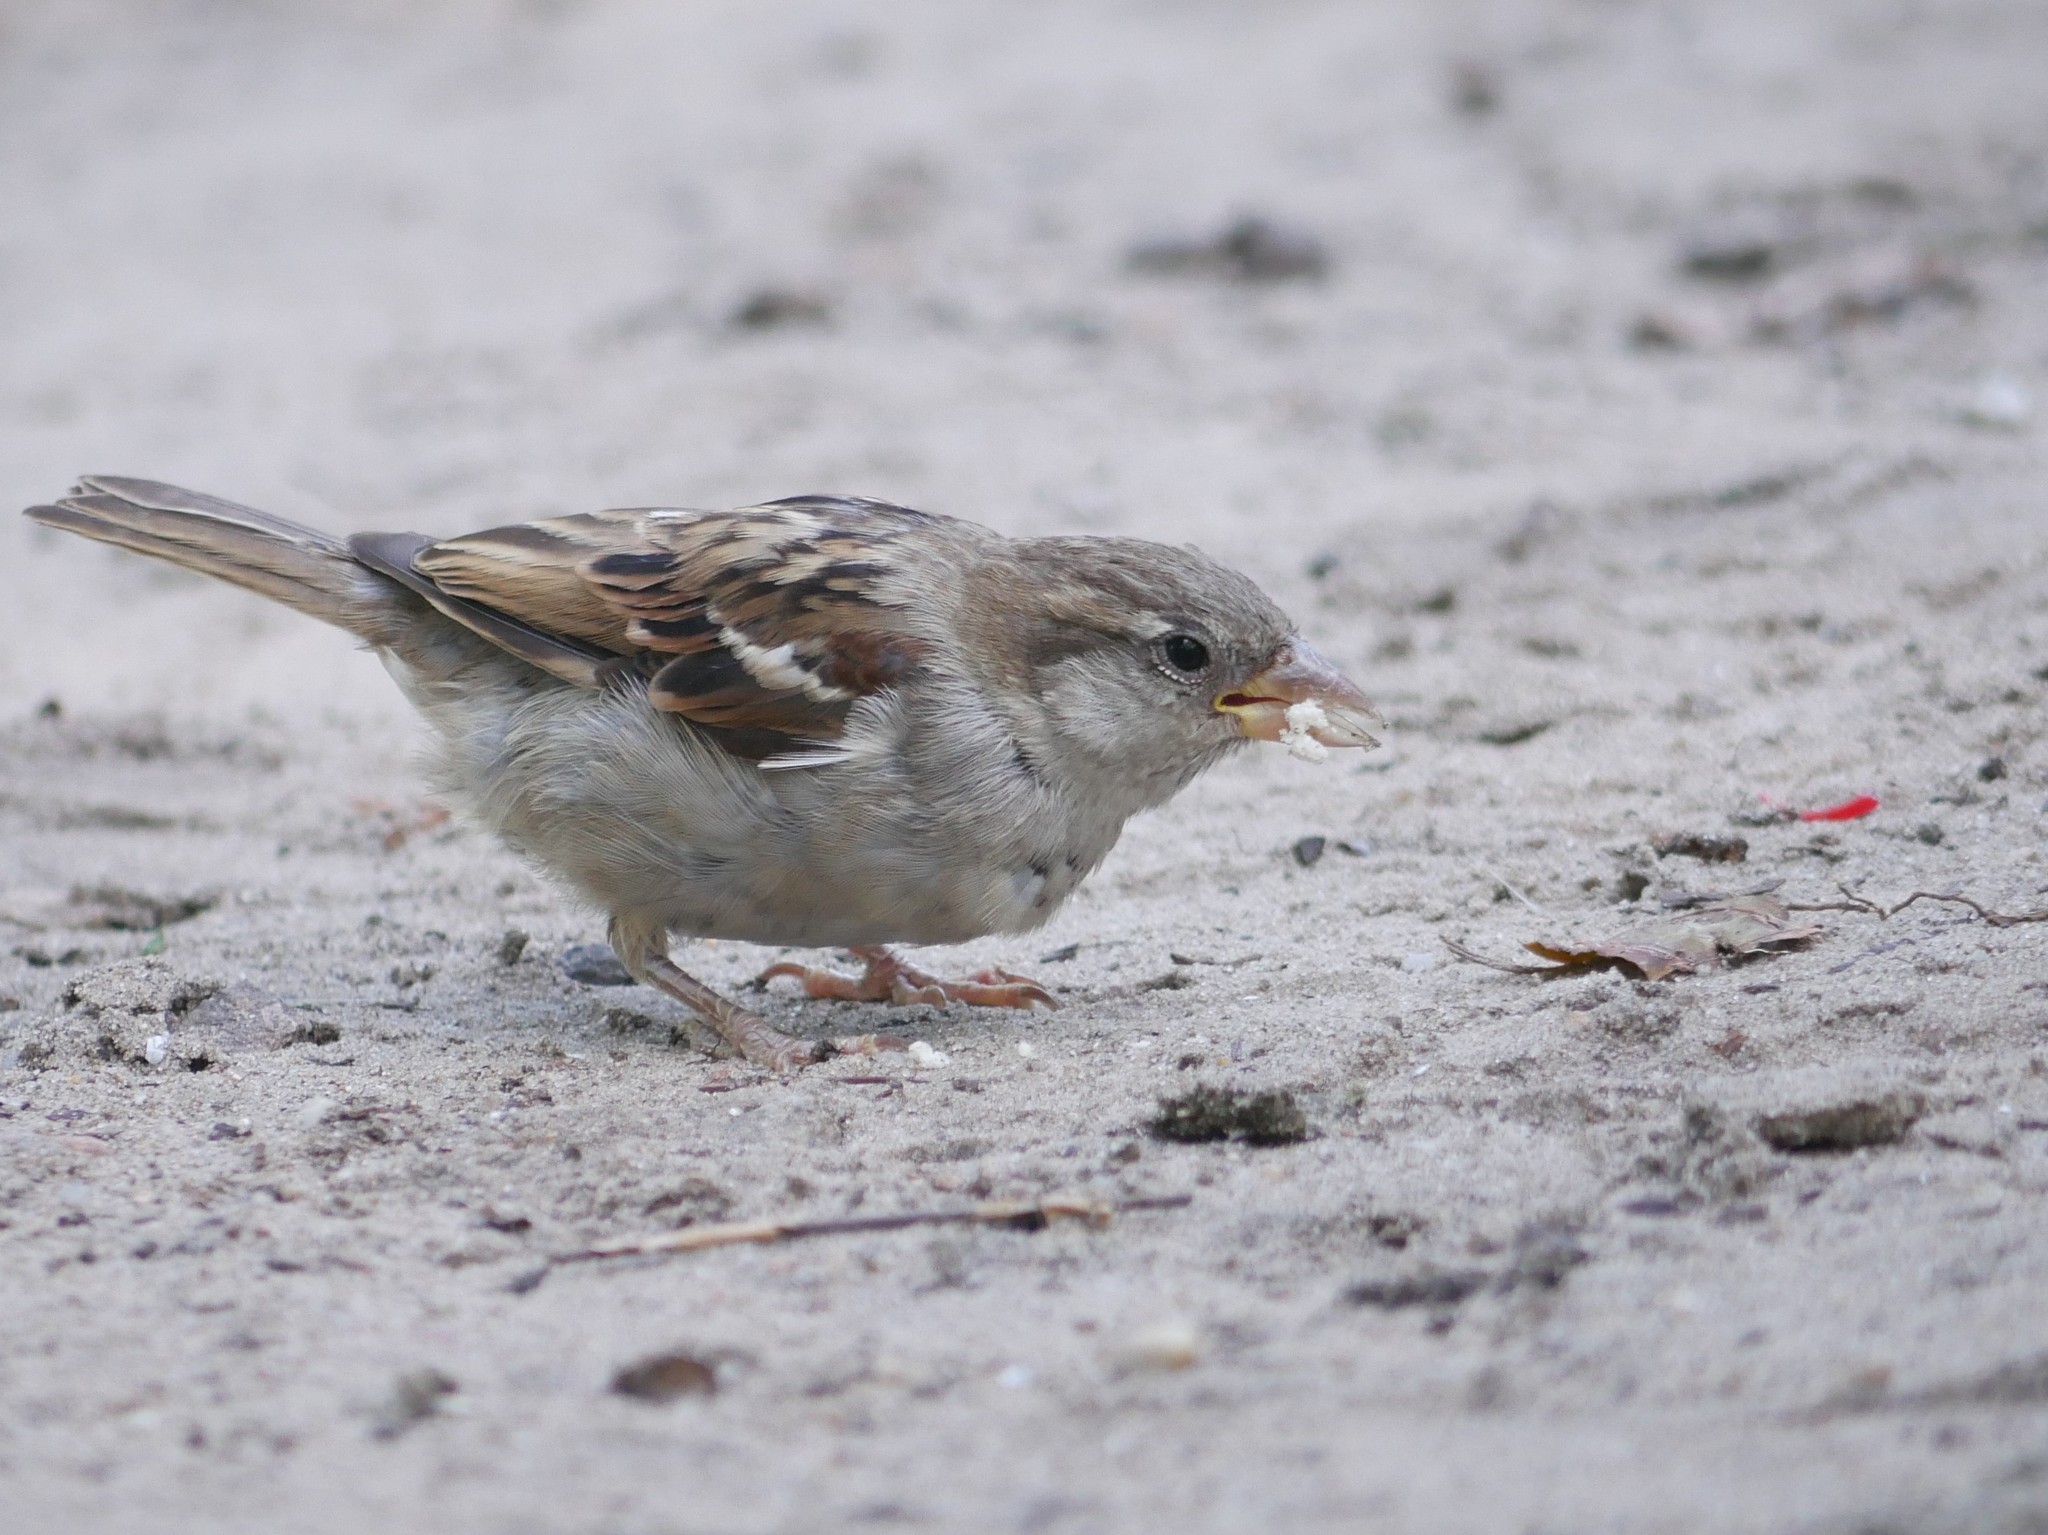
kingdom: Animalia
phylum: Chordata
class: Aves
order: Passeriformes
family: Passeridae
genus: Passer
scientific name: Passer domesticus
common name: House sparrow
